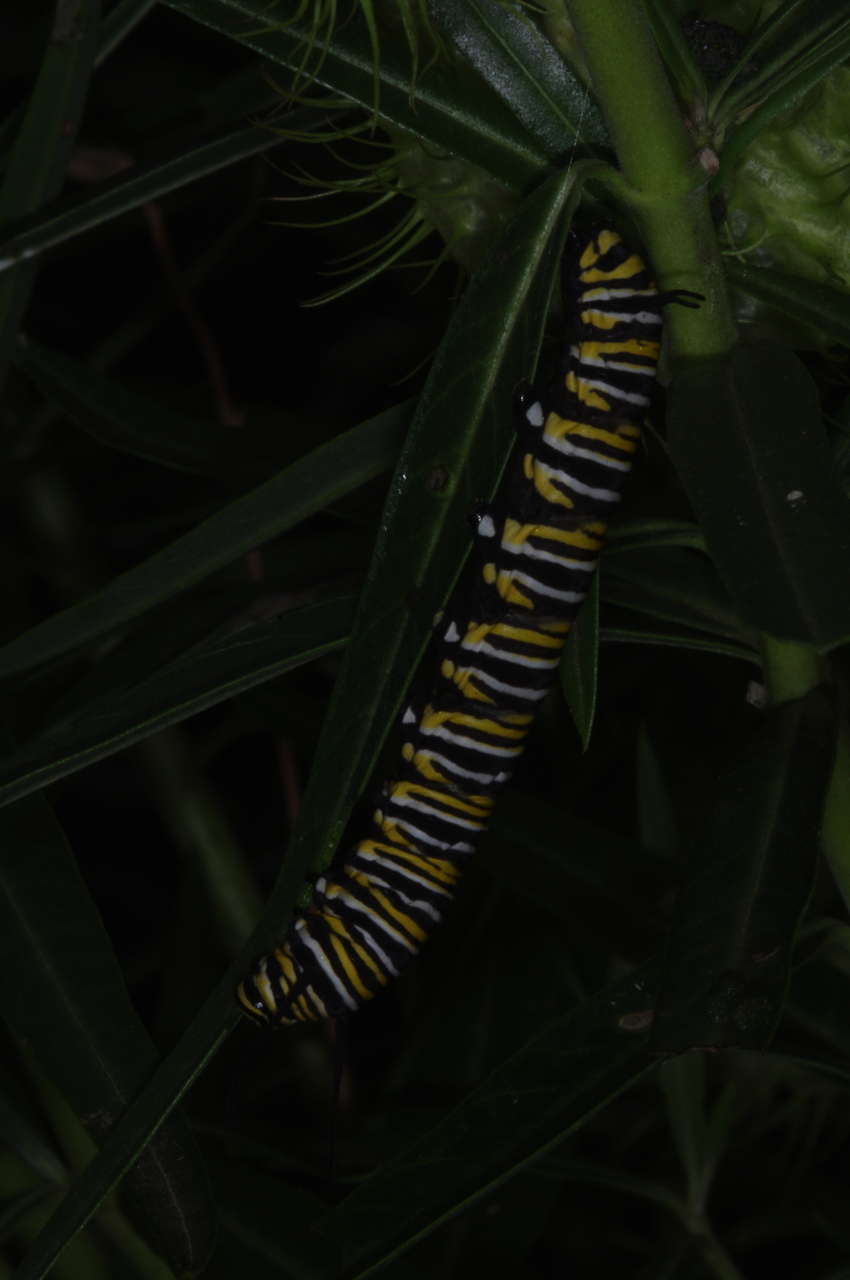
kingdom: Animalia
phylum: Arthropoda
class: Insecta
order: Lepidoptera
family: Nymphalidae
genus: Danaus
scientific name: Danaus plexippus
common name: Monarch
